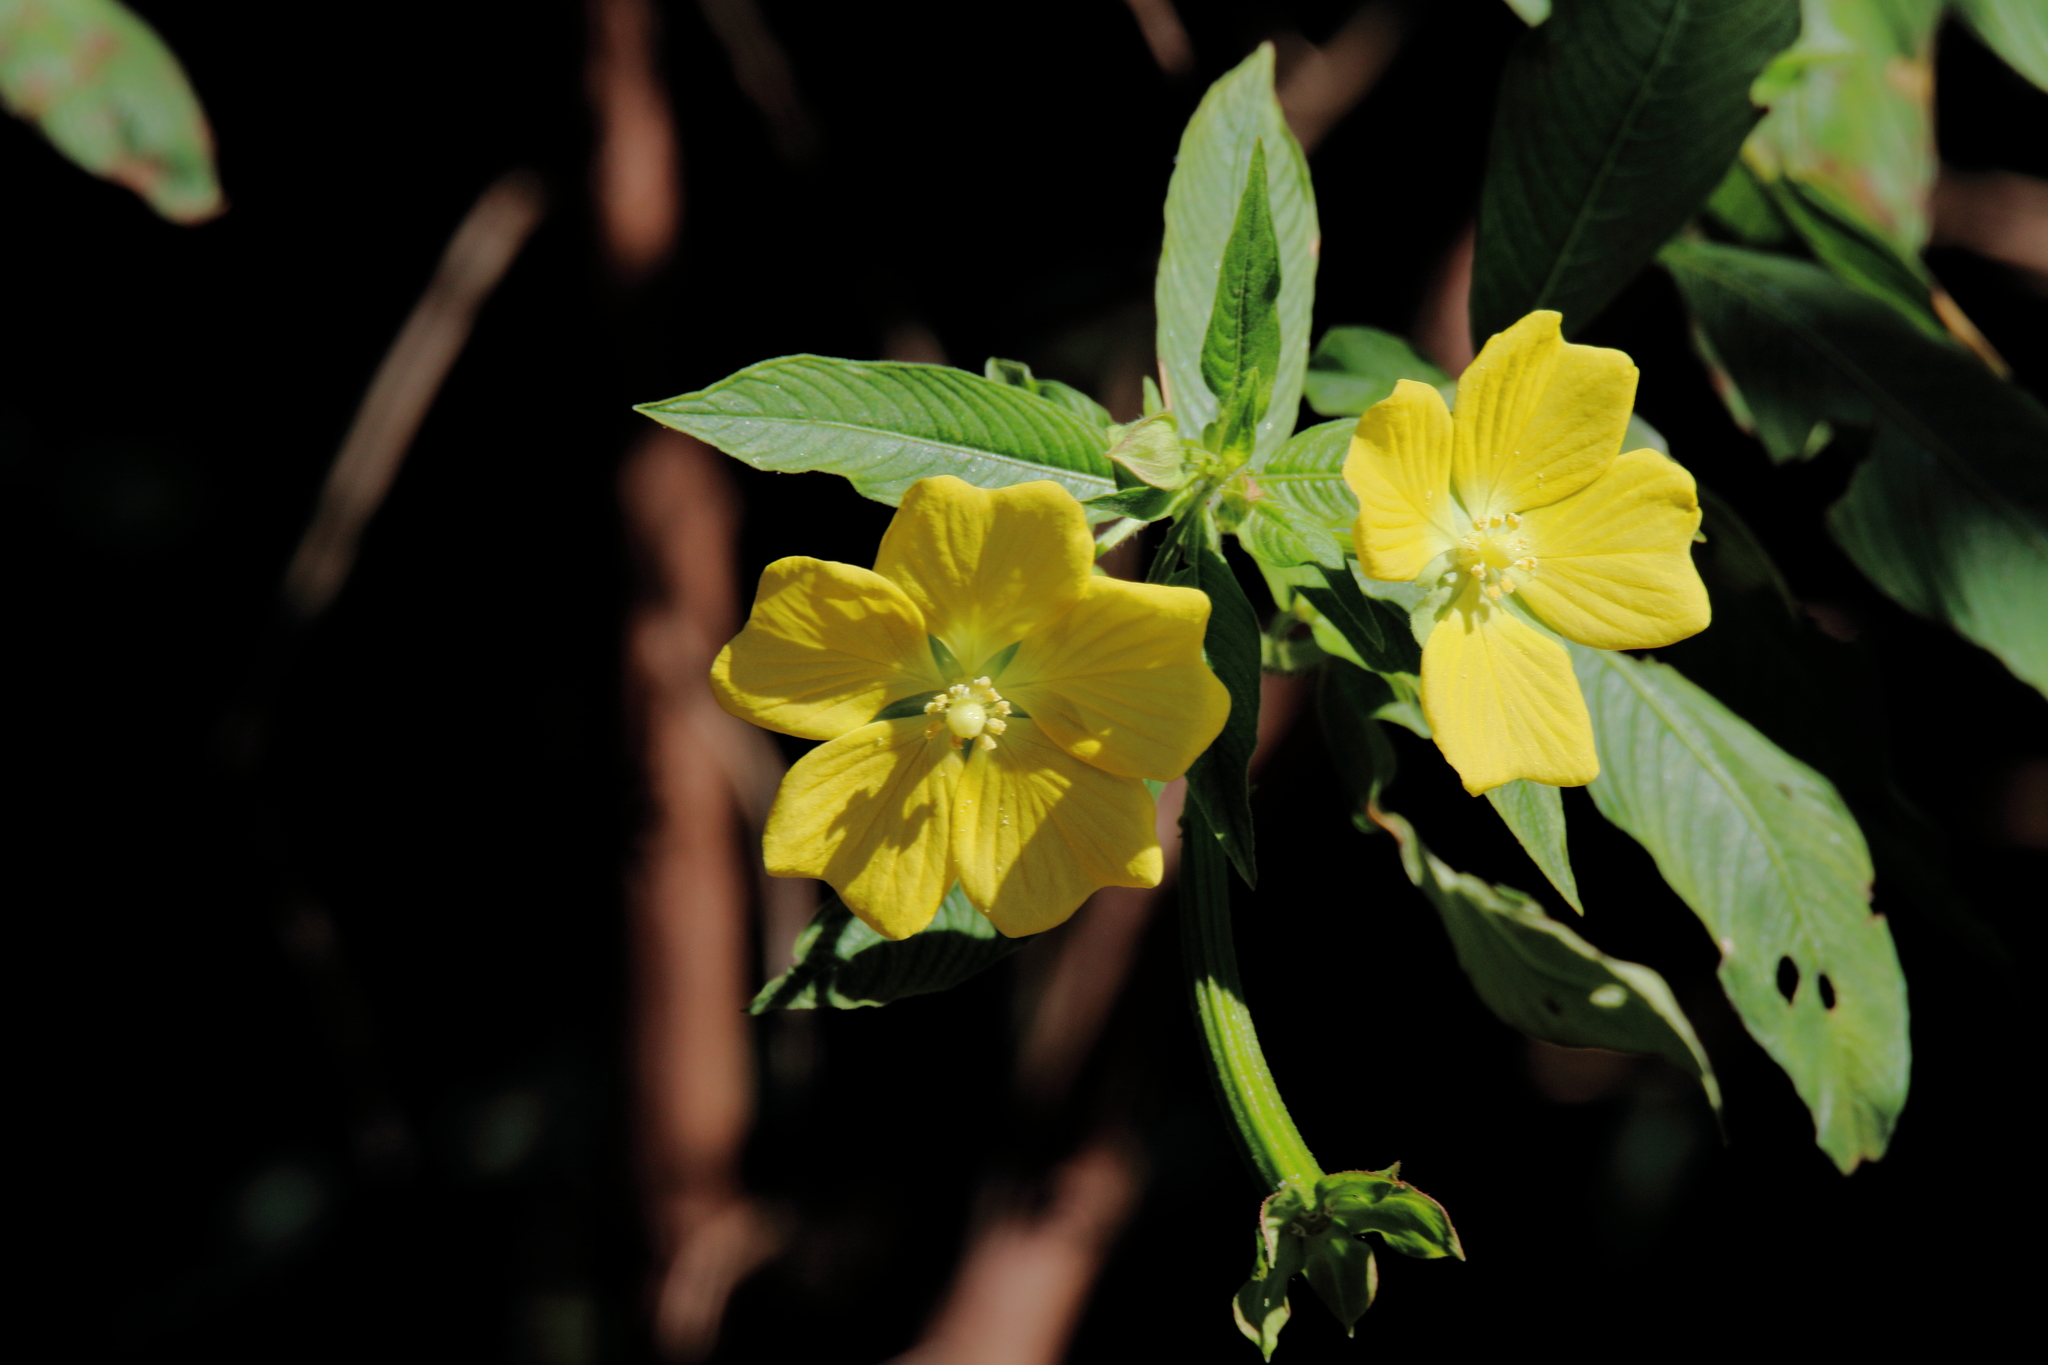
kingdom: Plantae
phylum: Tracheophyta
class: Magnoliopsida
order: Myrtales
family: Onagraceae
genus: Ludwigia
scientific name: Ludwigia octovalvis
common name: Water-primrose
